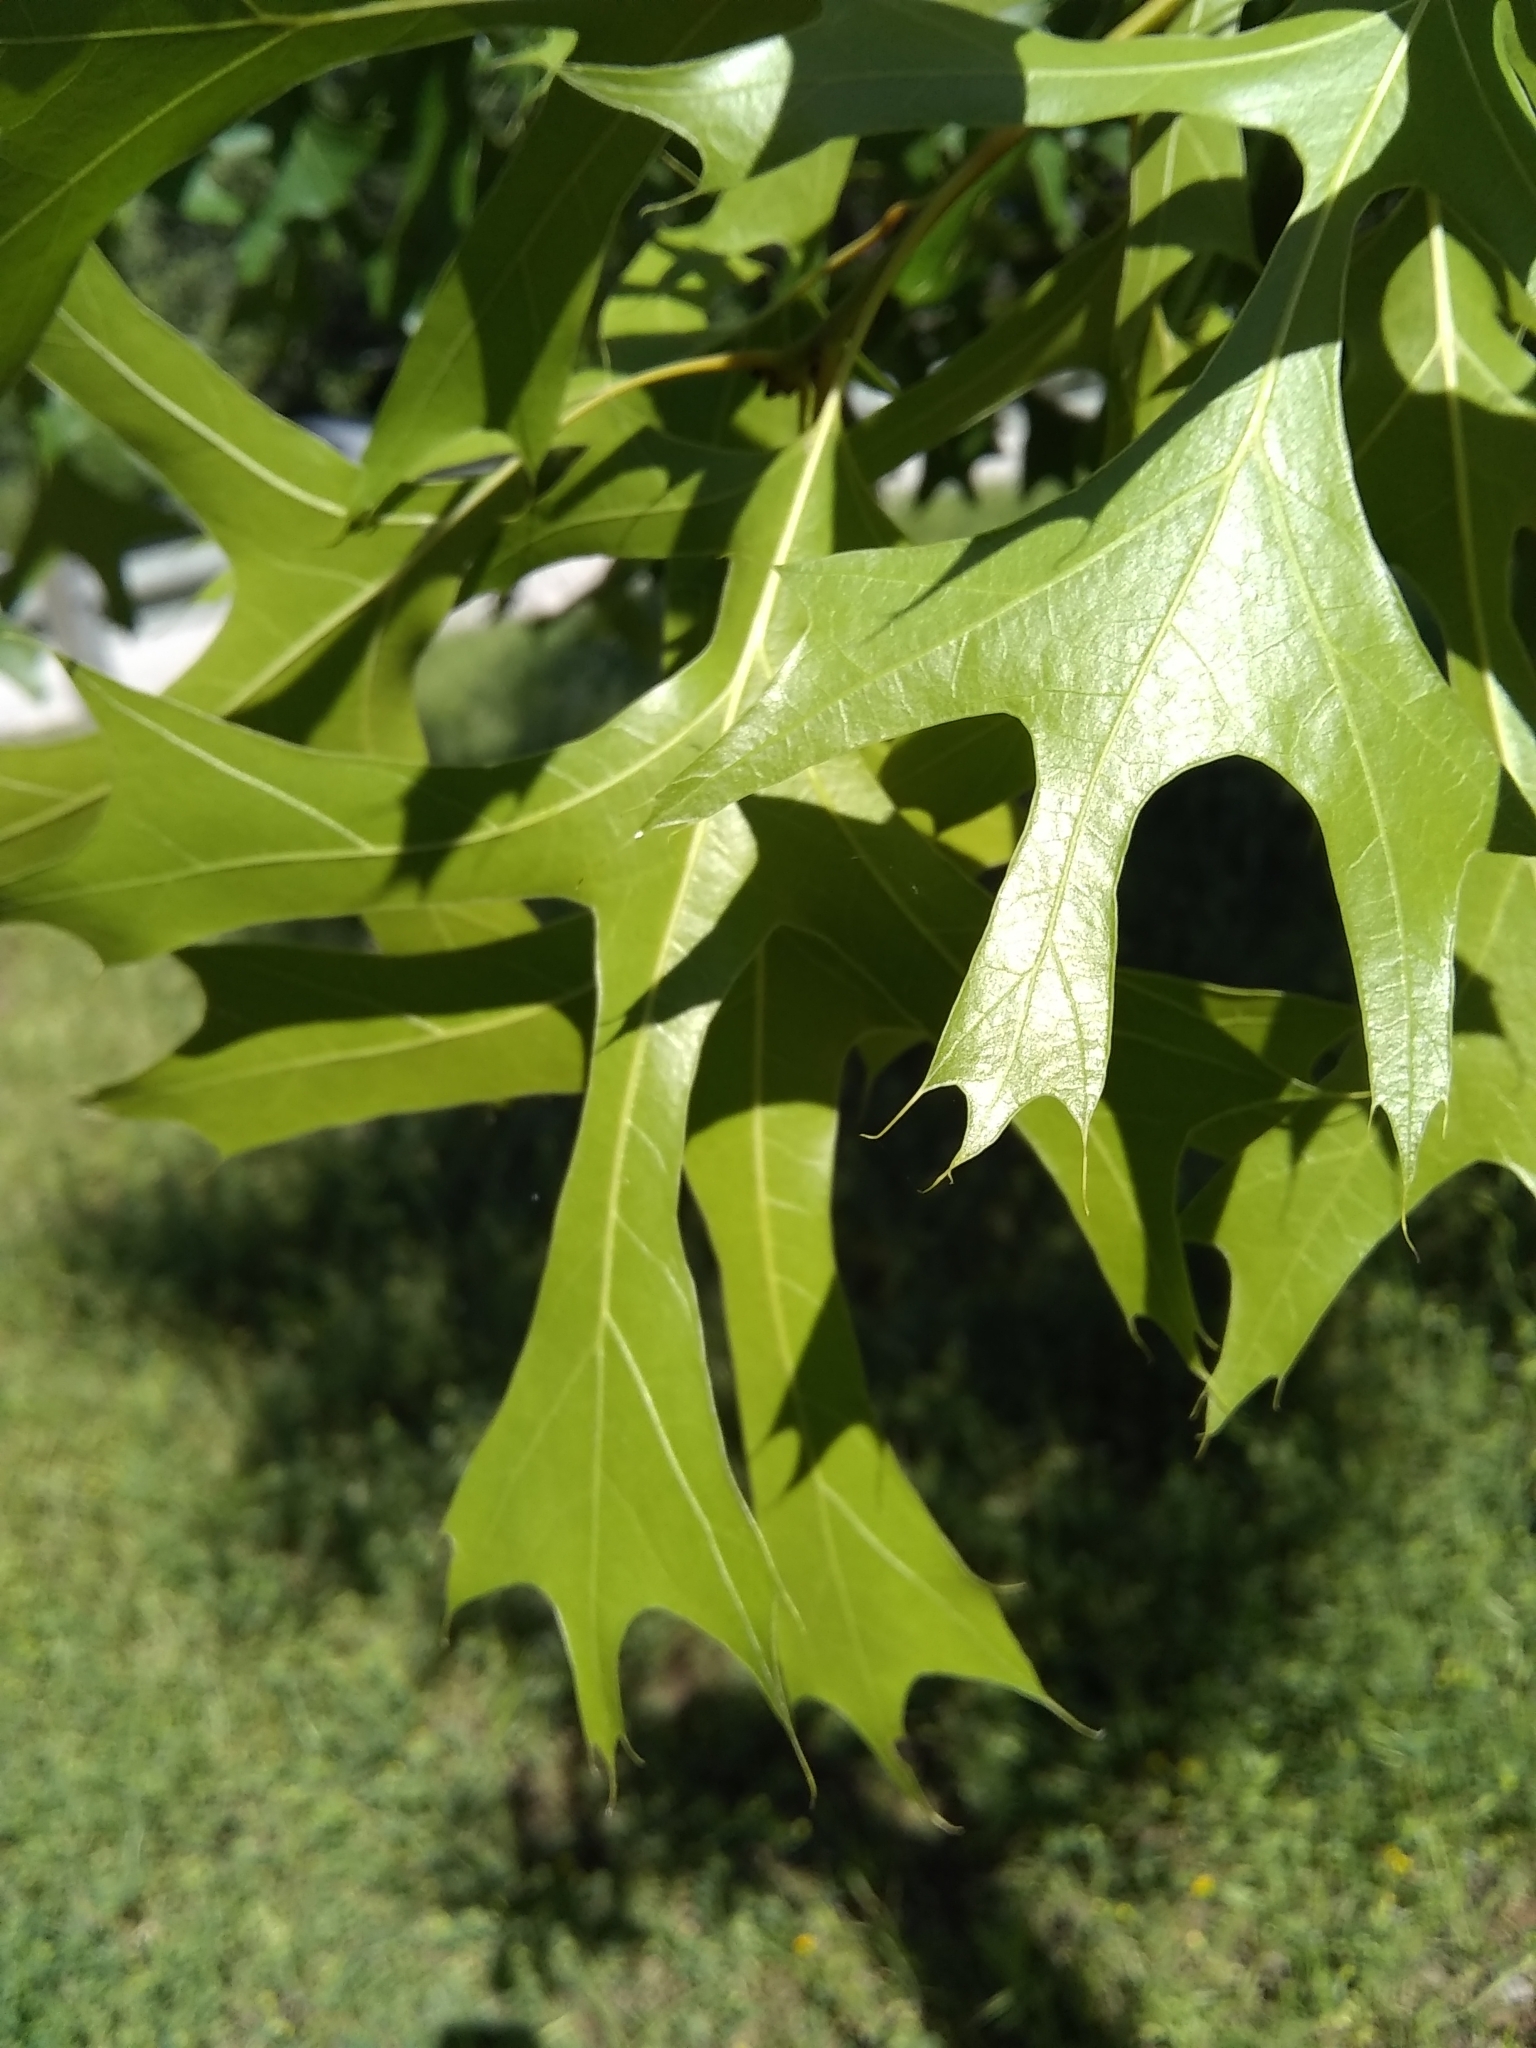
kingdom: Plantae
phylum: Tracheophyta
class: Magnoliopsida
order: Fagales
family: Fagaceae
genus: Quercus
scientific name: Quercus shumardii
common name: Shumard oak
